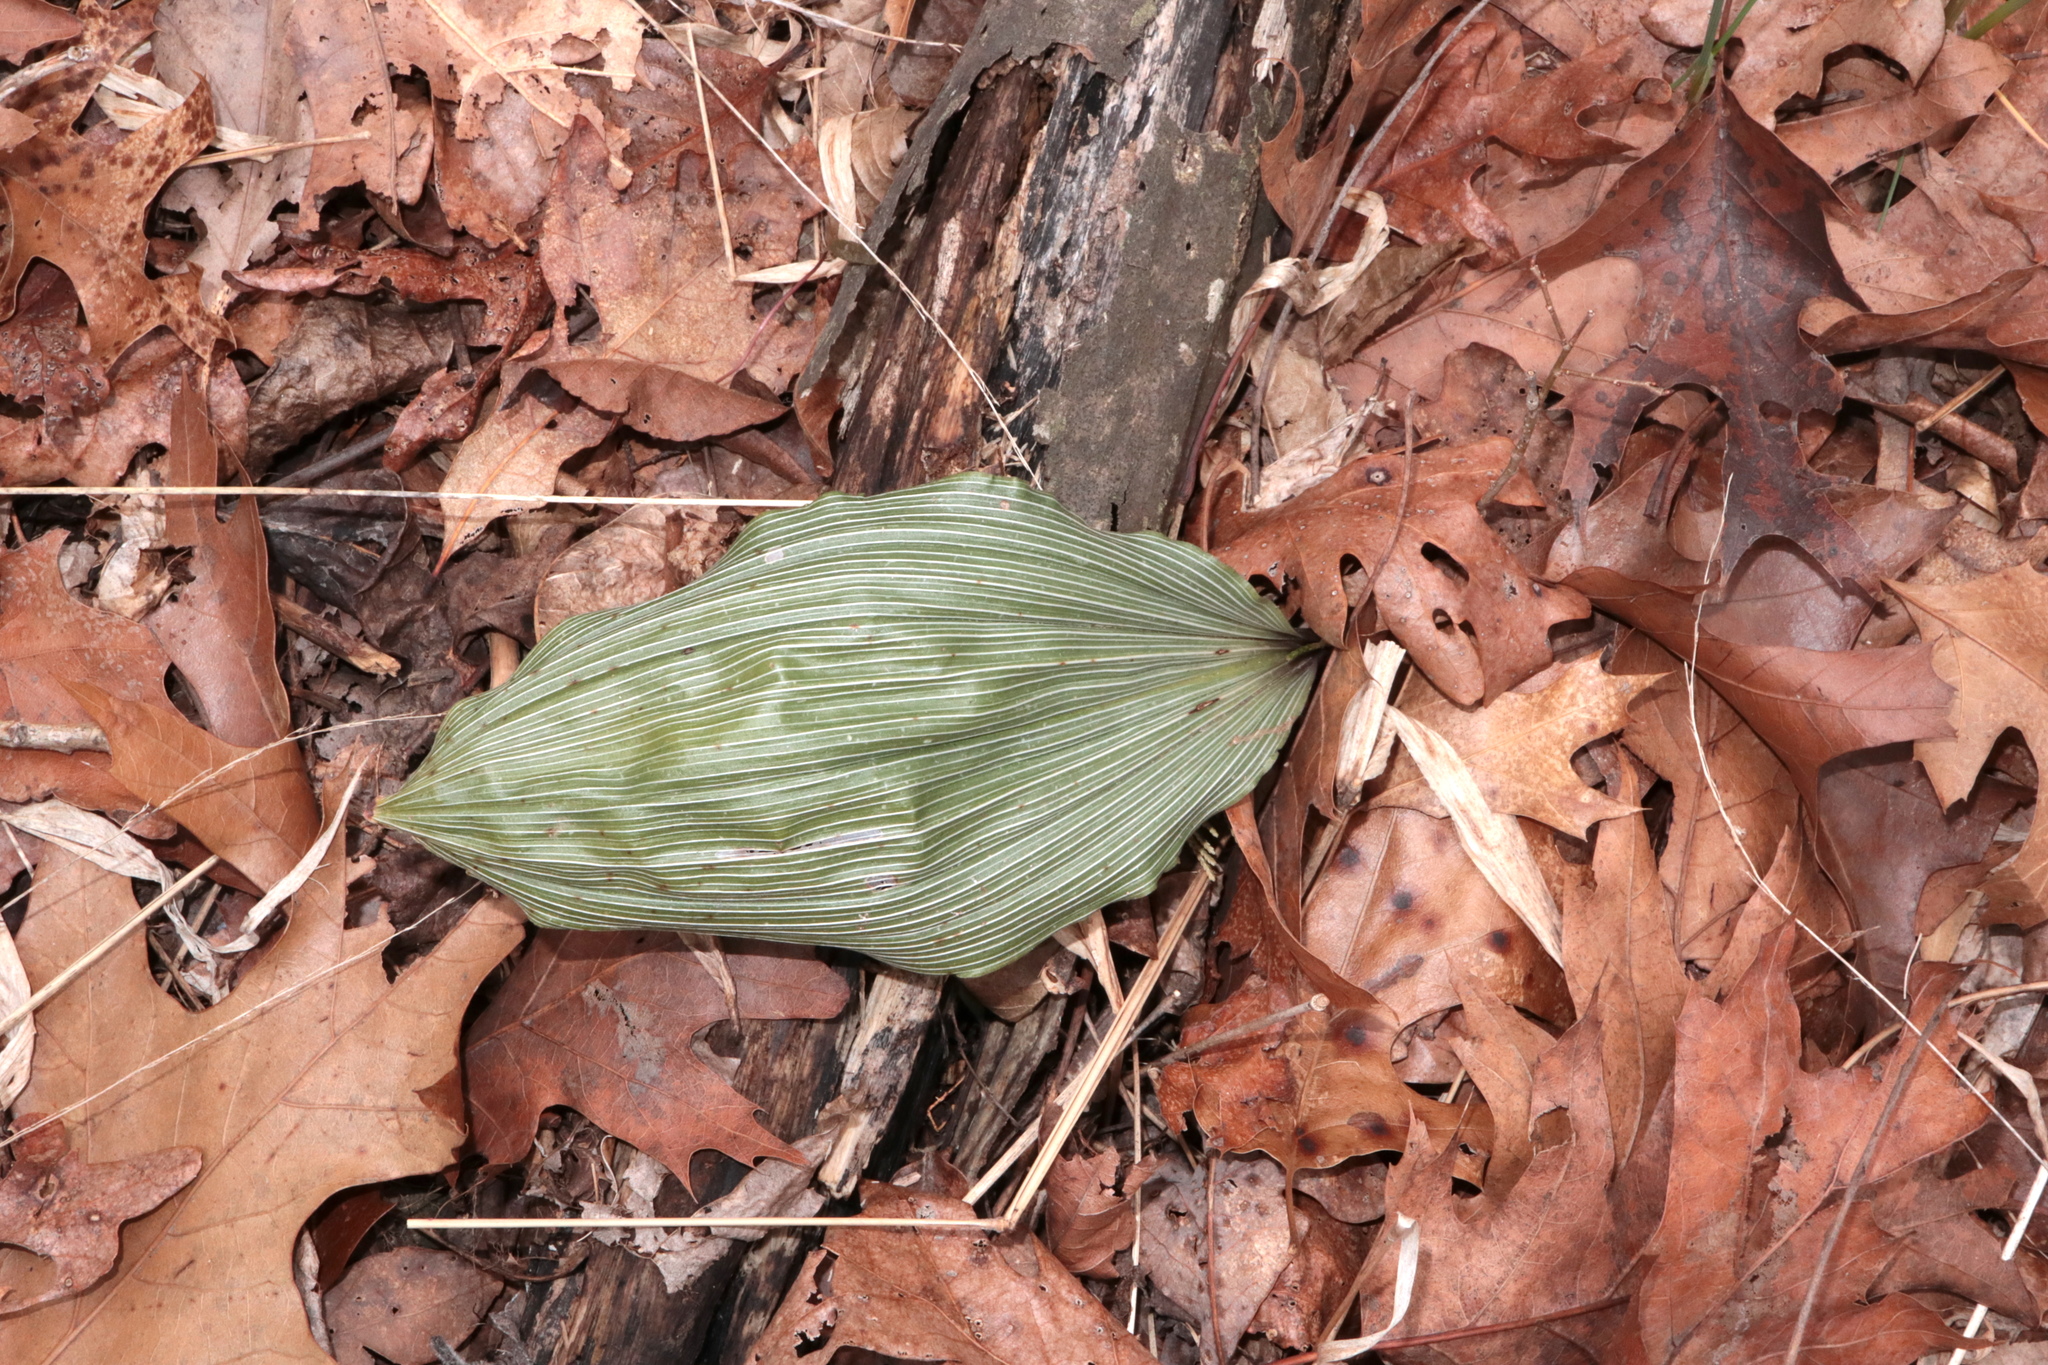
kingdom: Plantae
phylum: Tracheophyta
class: Liliopsida
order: Asparagales
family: Orchidaceae
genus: Aplectrum
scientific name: Aplectrum hyemale
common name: Adam-and-eve
